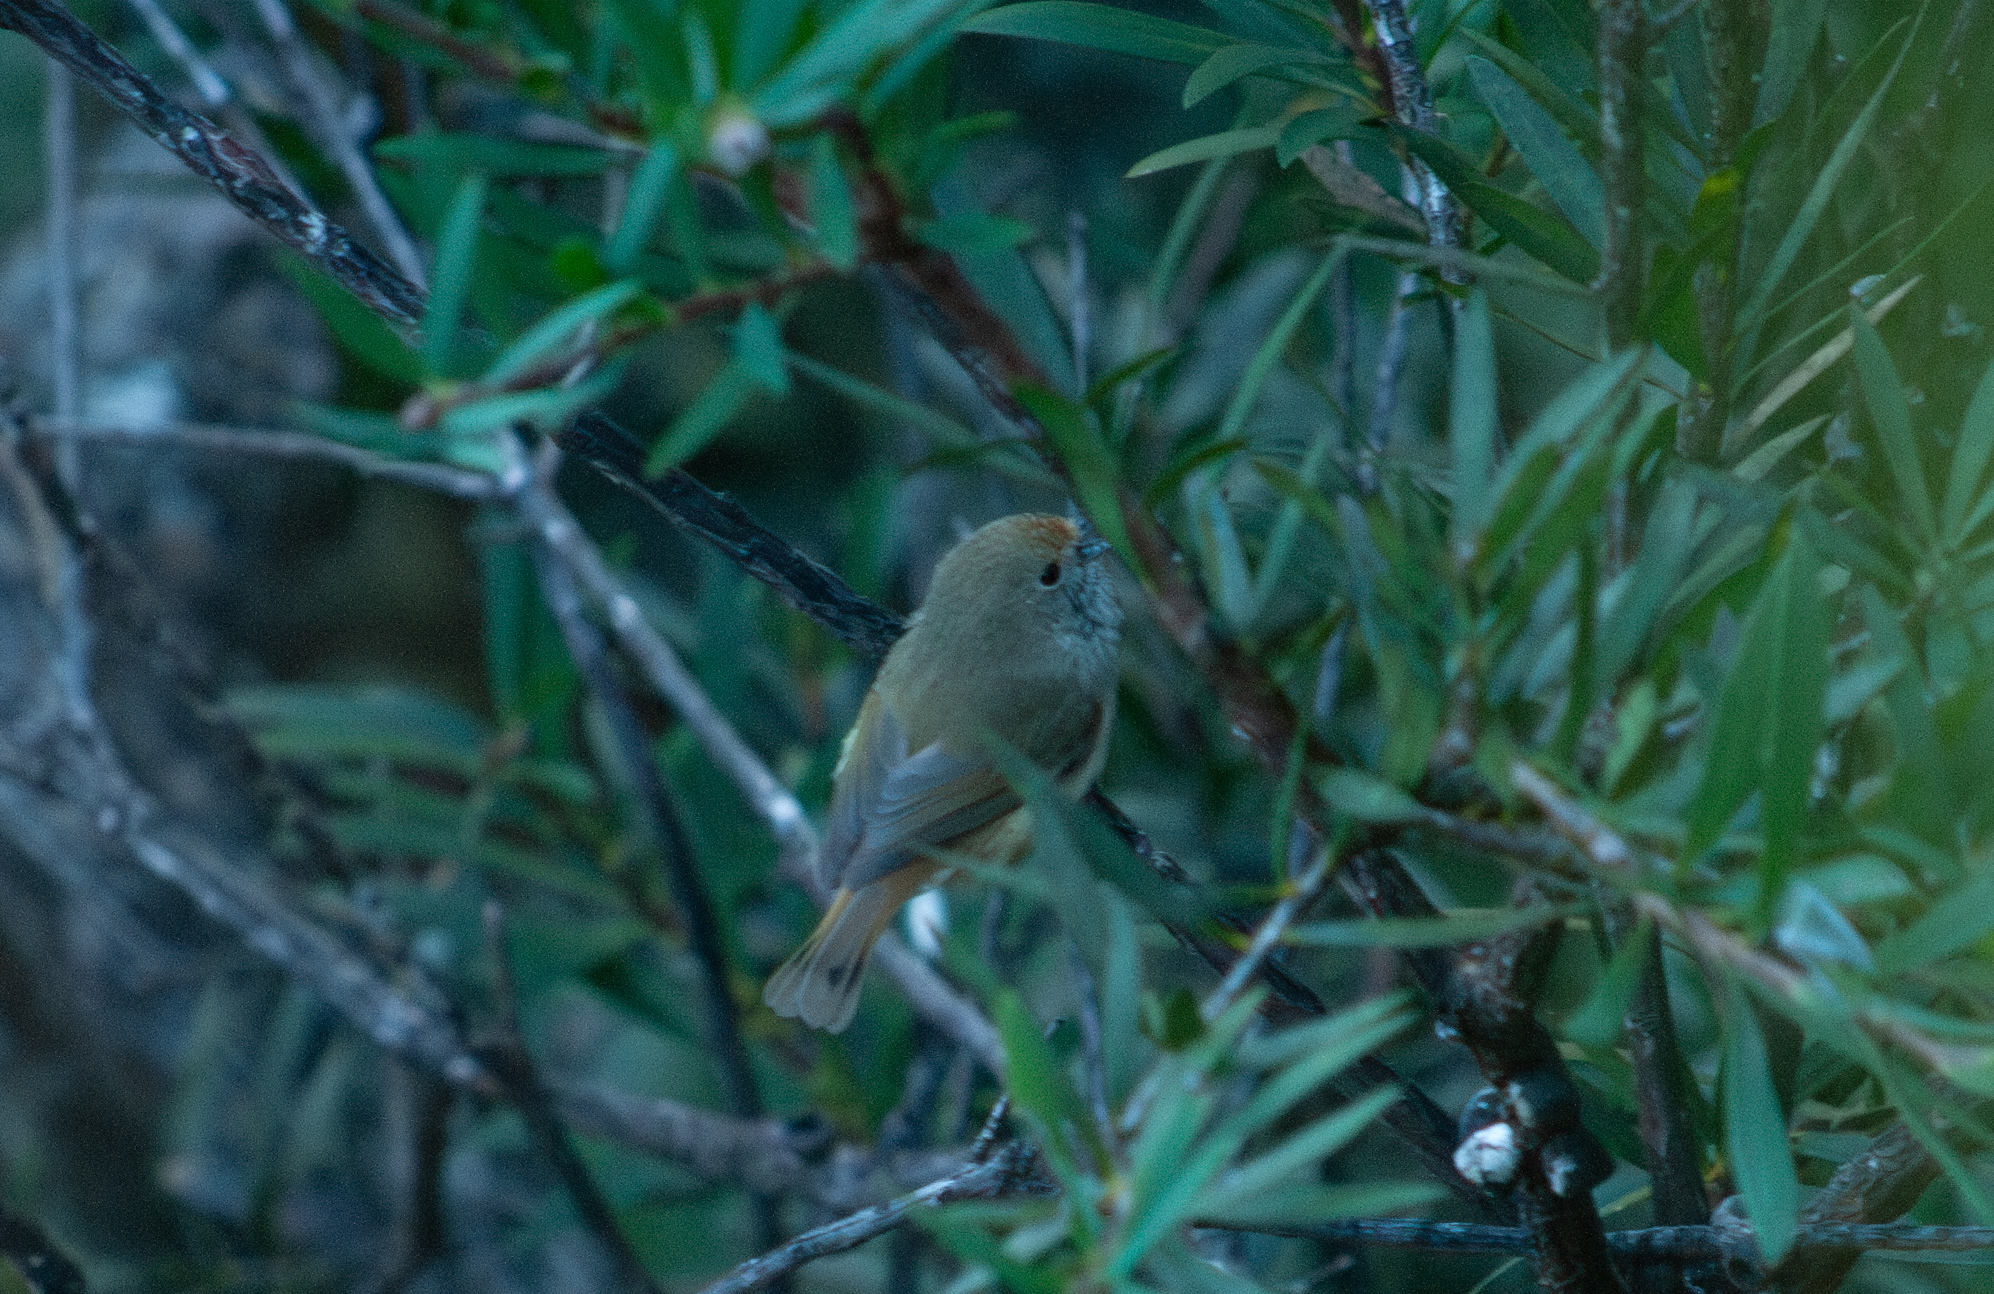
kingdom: Animalia
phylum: Chordata
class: Aves
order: Passeriformes
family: Acanthizidae
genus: Acanthiza
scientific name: Acanthiza pusilla
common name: Brown thornbill
